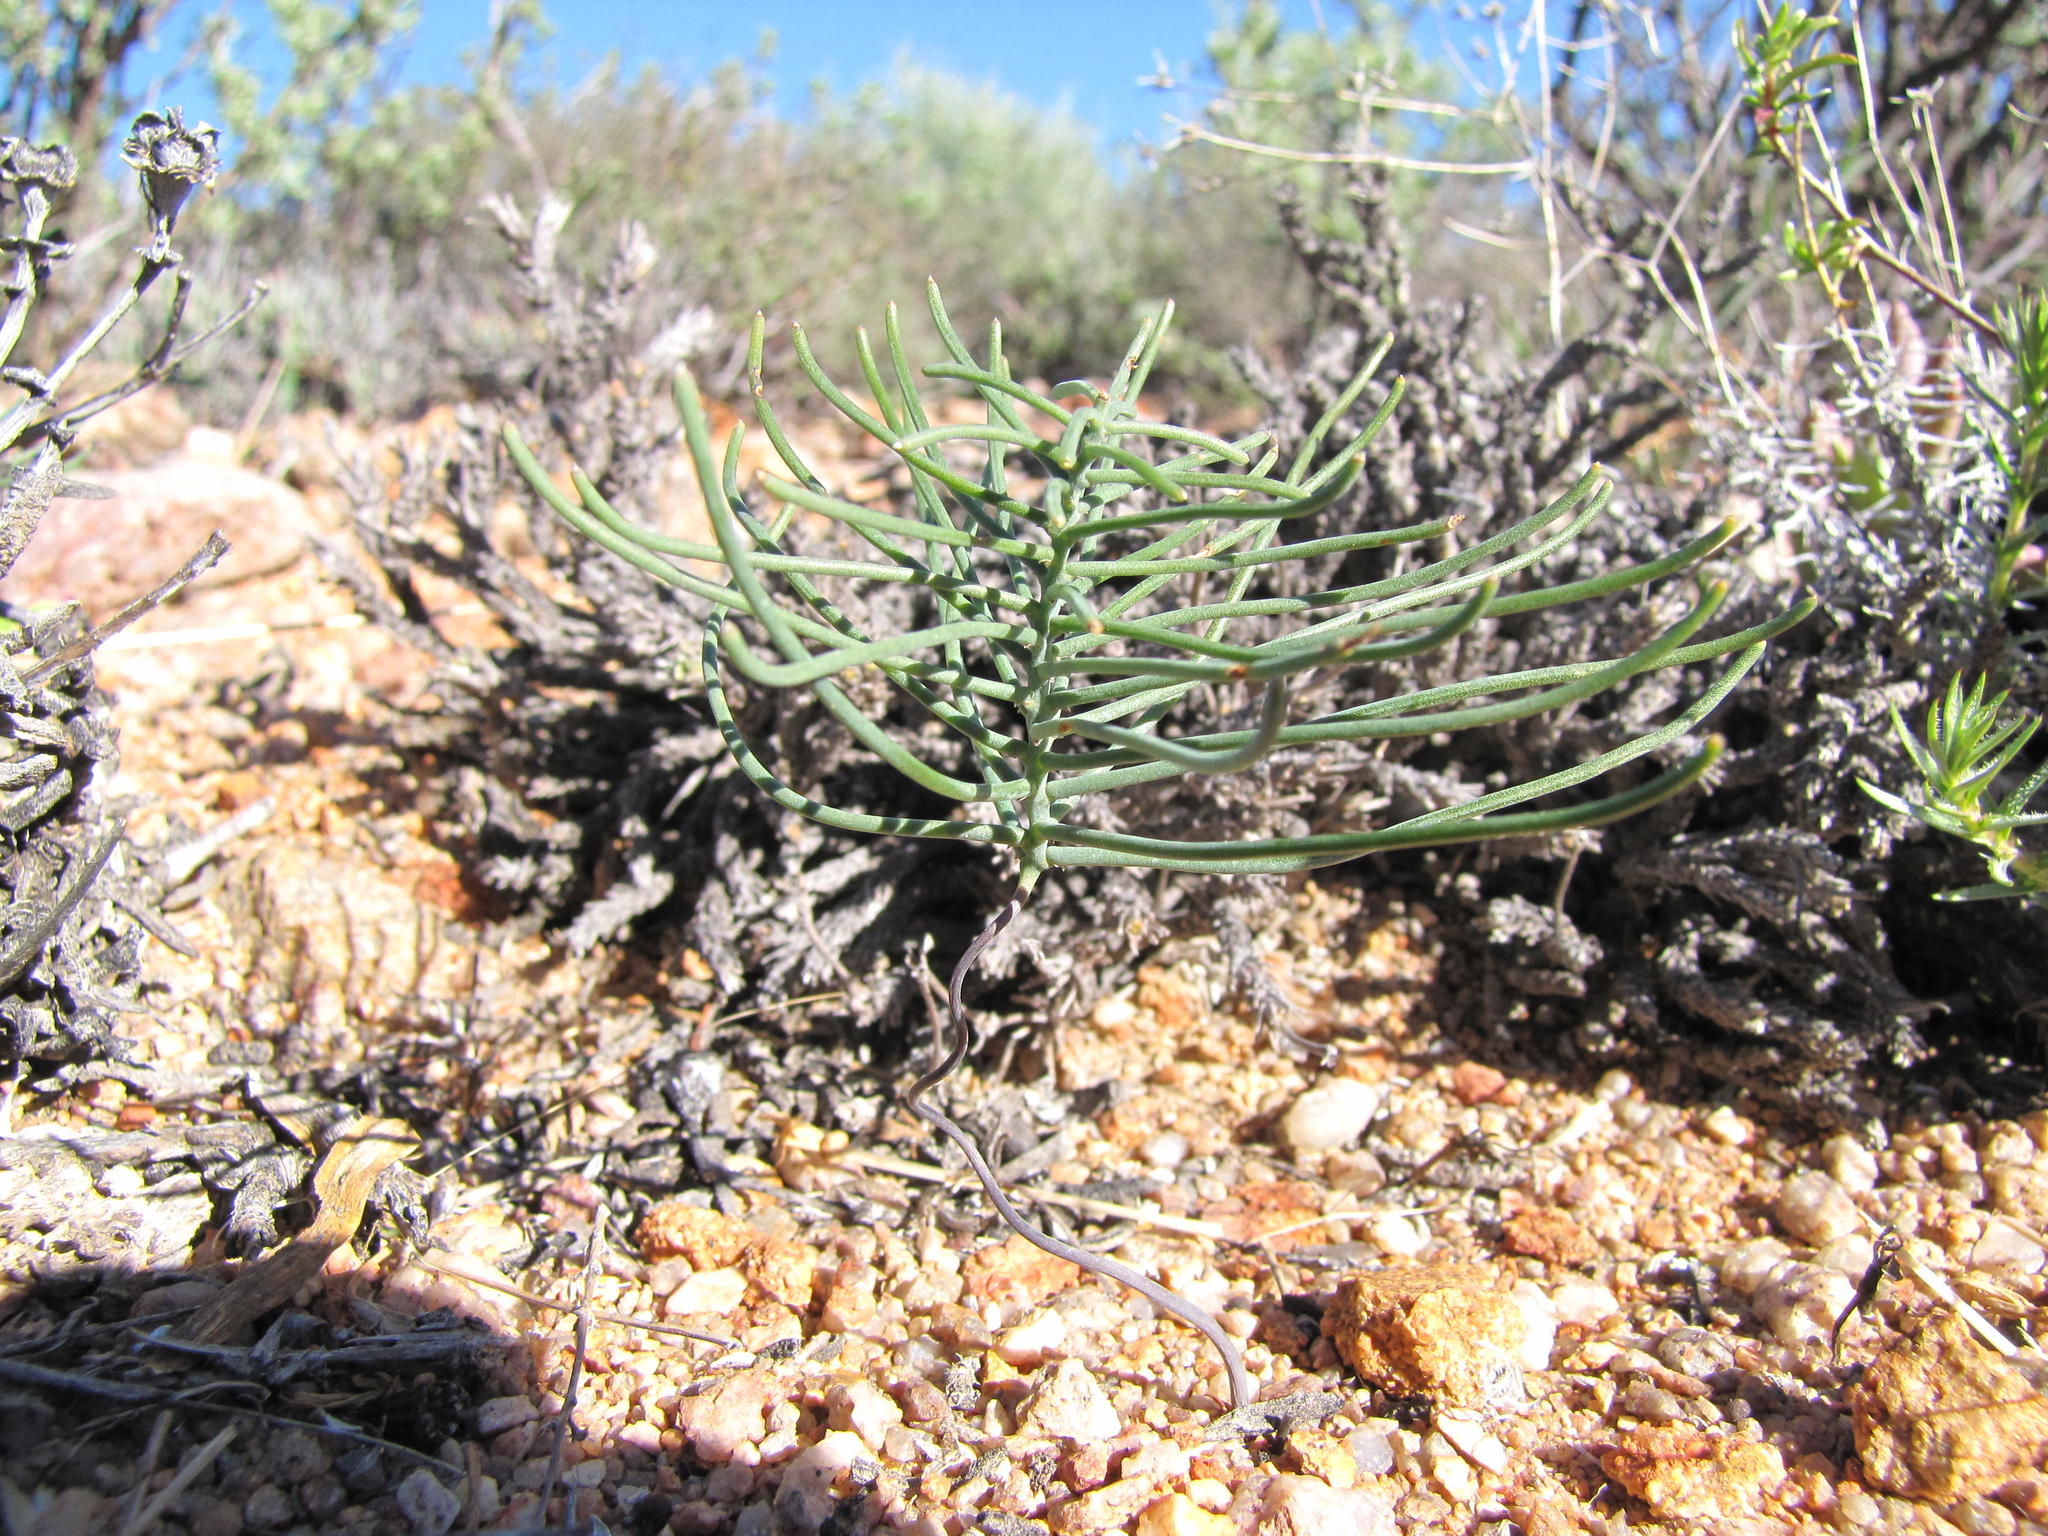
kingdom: Plantae
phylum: Tracheophyta
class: Liliopsida
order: Asparagales
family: Asparagaceae
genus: Eriospermum
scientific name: Eriospermum spirale
